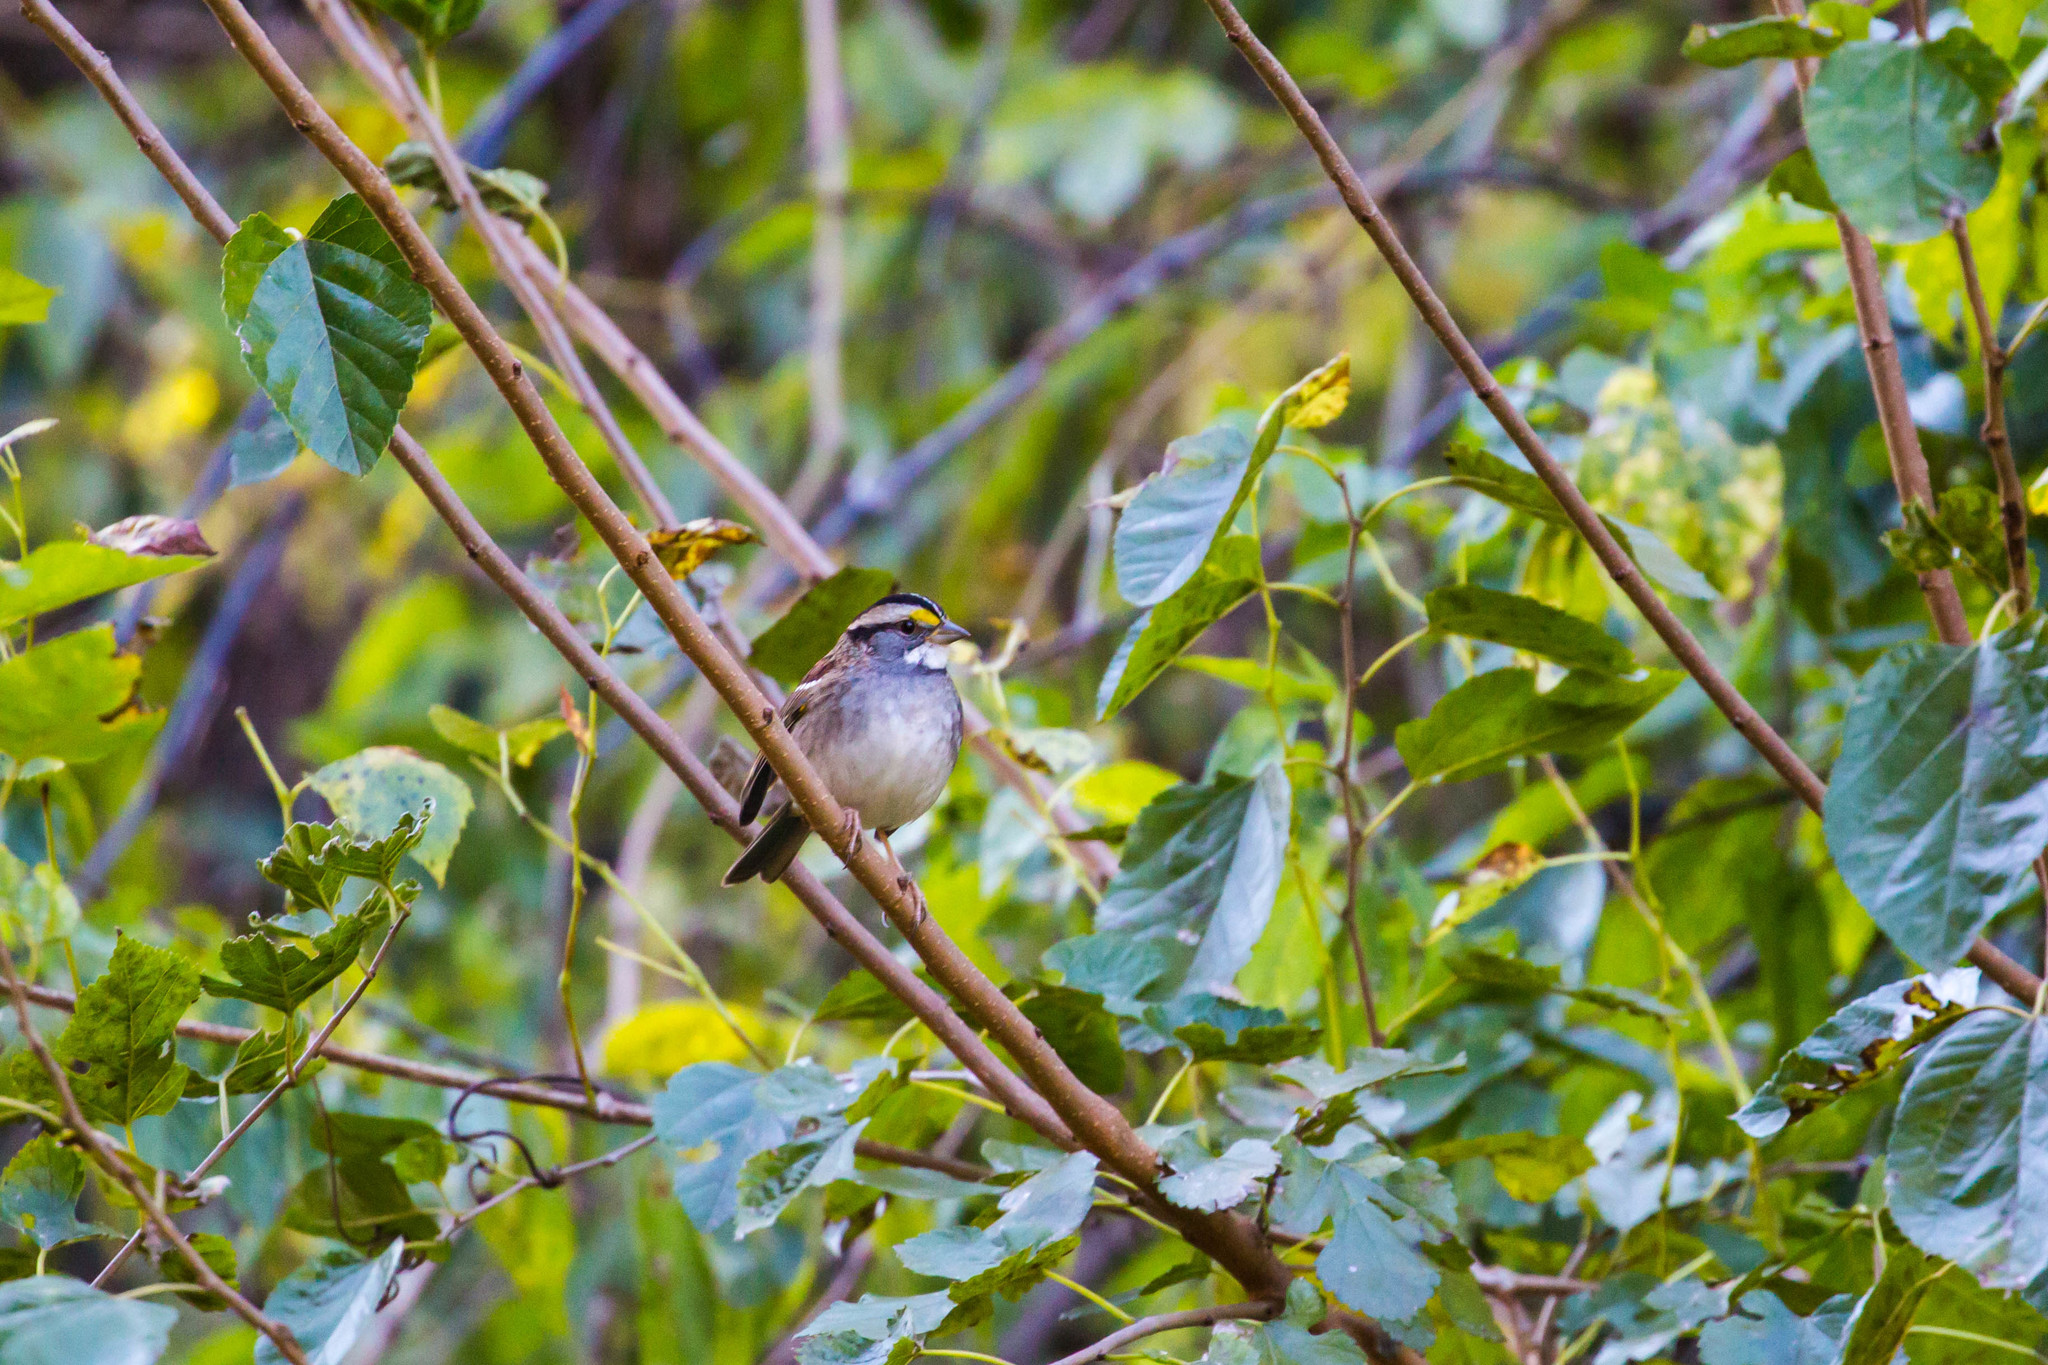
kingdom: Animalia
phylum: Chordata
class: Aves
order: Passeriformes
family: Passerellidae
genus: Zonotrichia
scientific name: Zonotrichia albicollis
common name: White-throated sparrow
